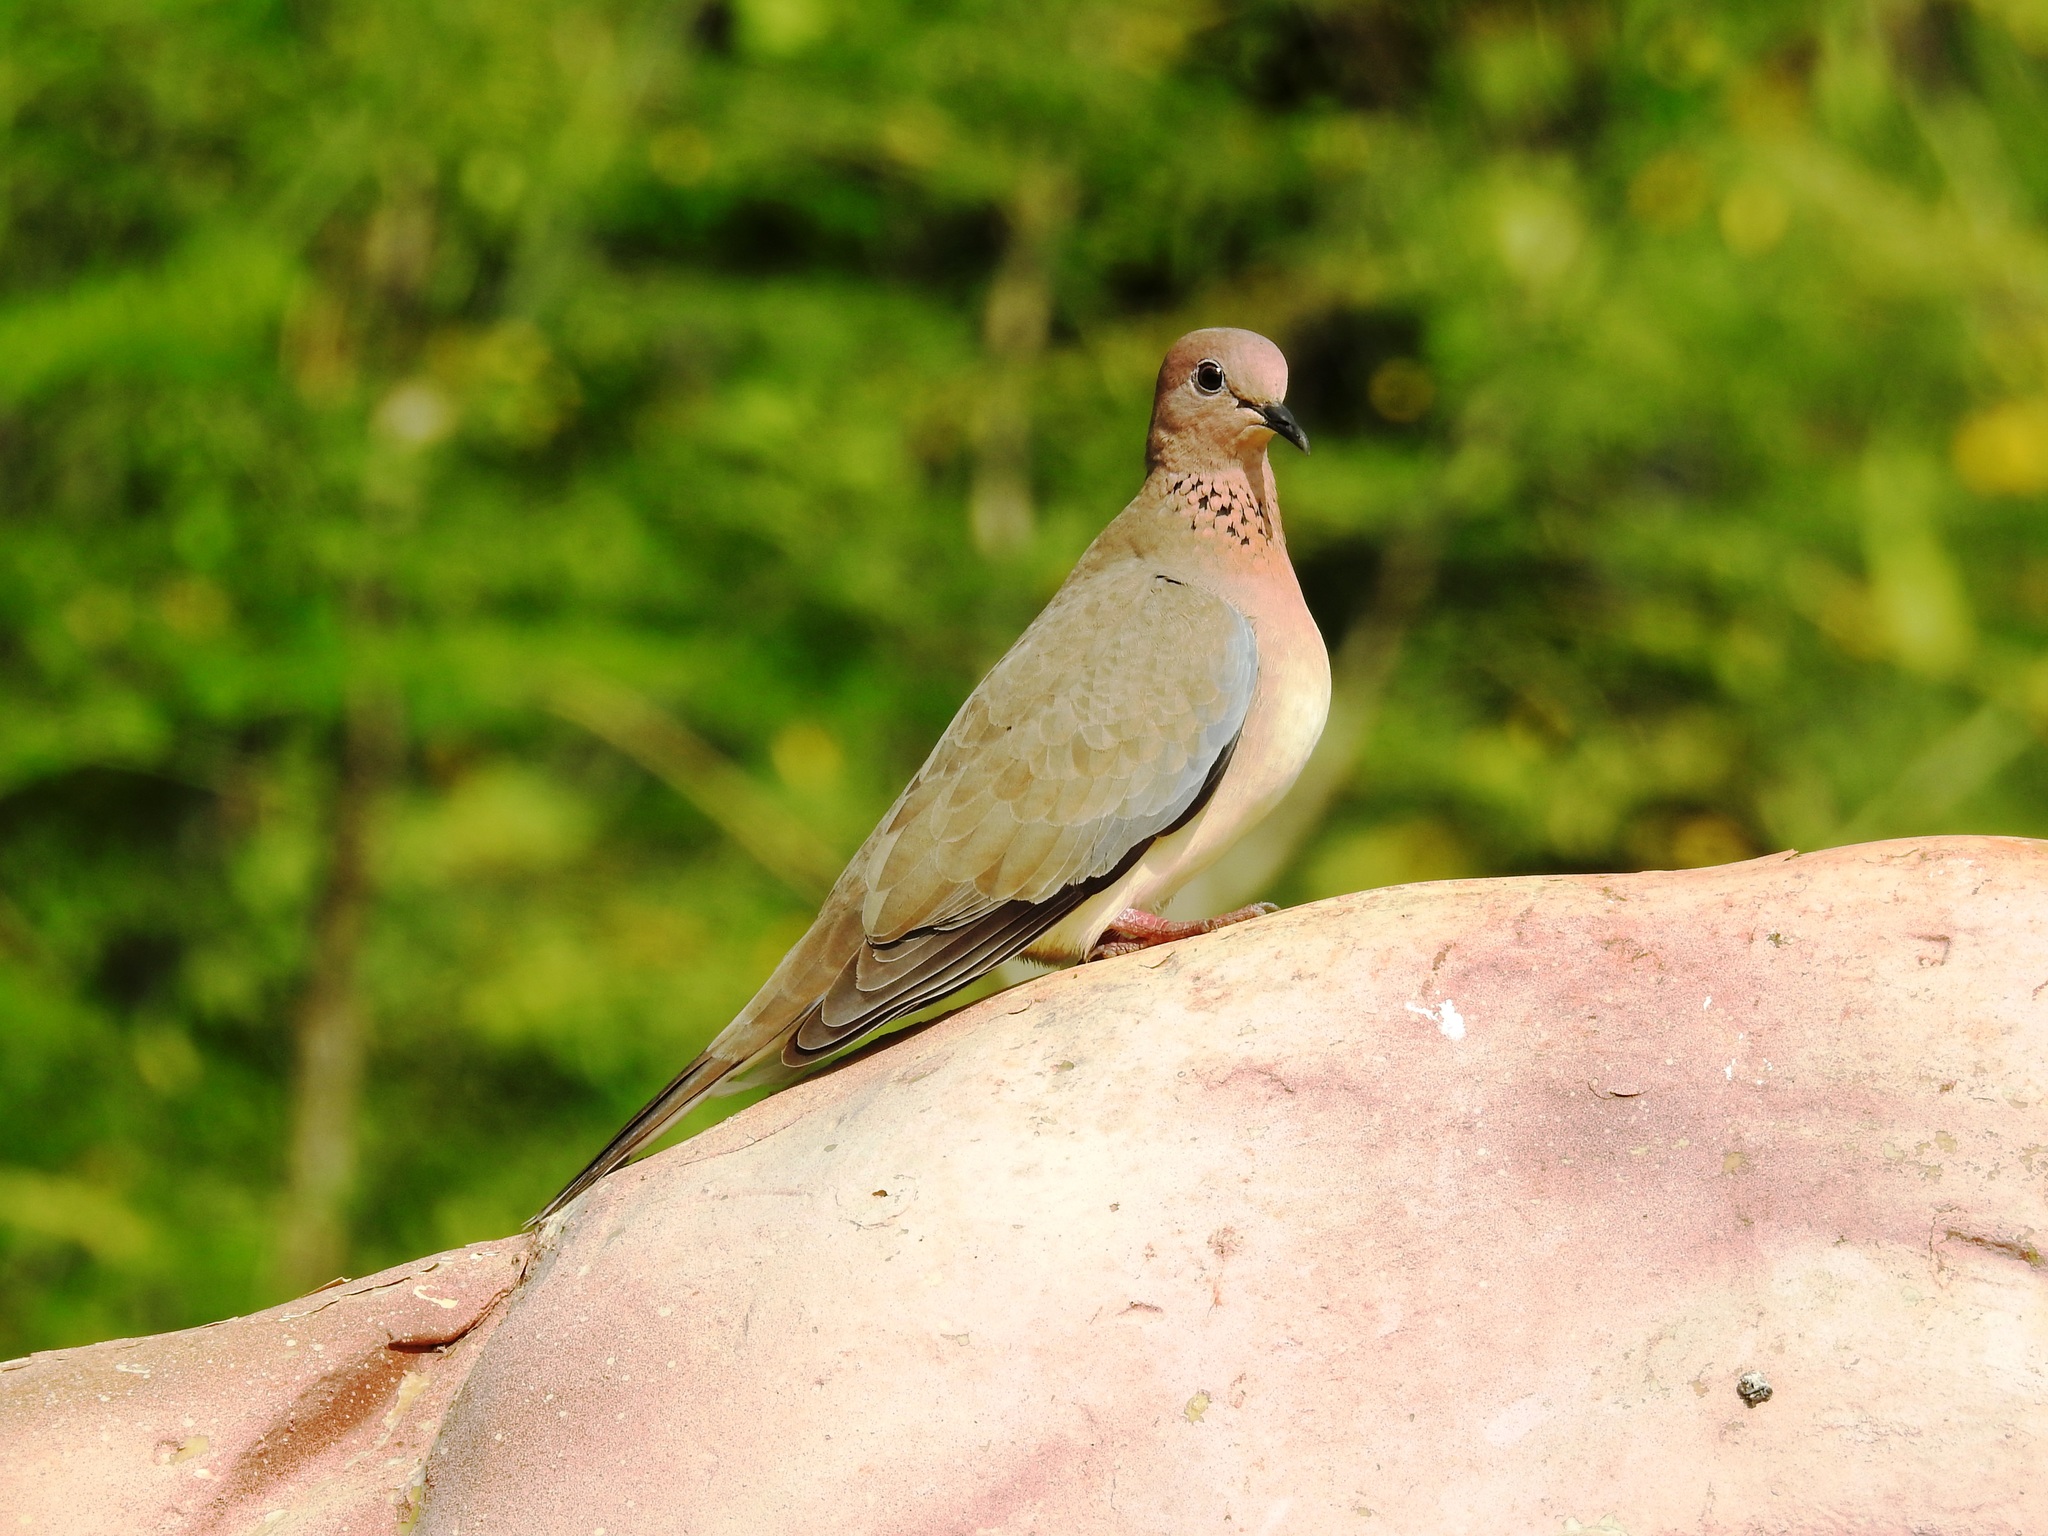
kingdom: Animalia
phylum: Chordata
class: Aves
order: Columbiformes
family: Columbidae
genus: Spilopelia
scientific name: Spilopelia senegalensis
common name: Laughing dove
